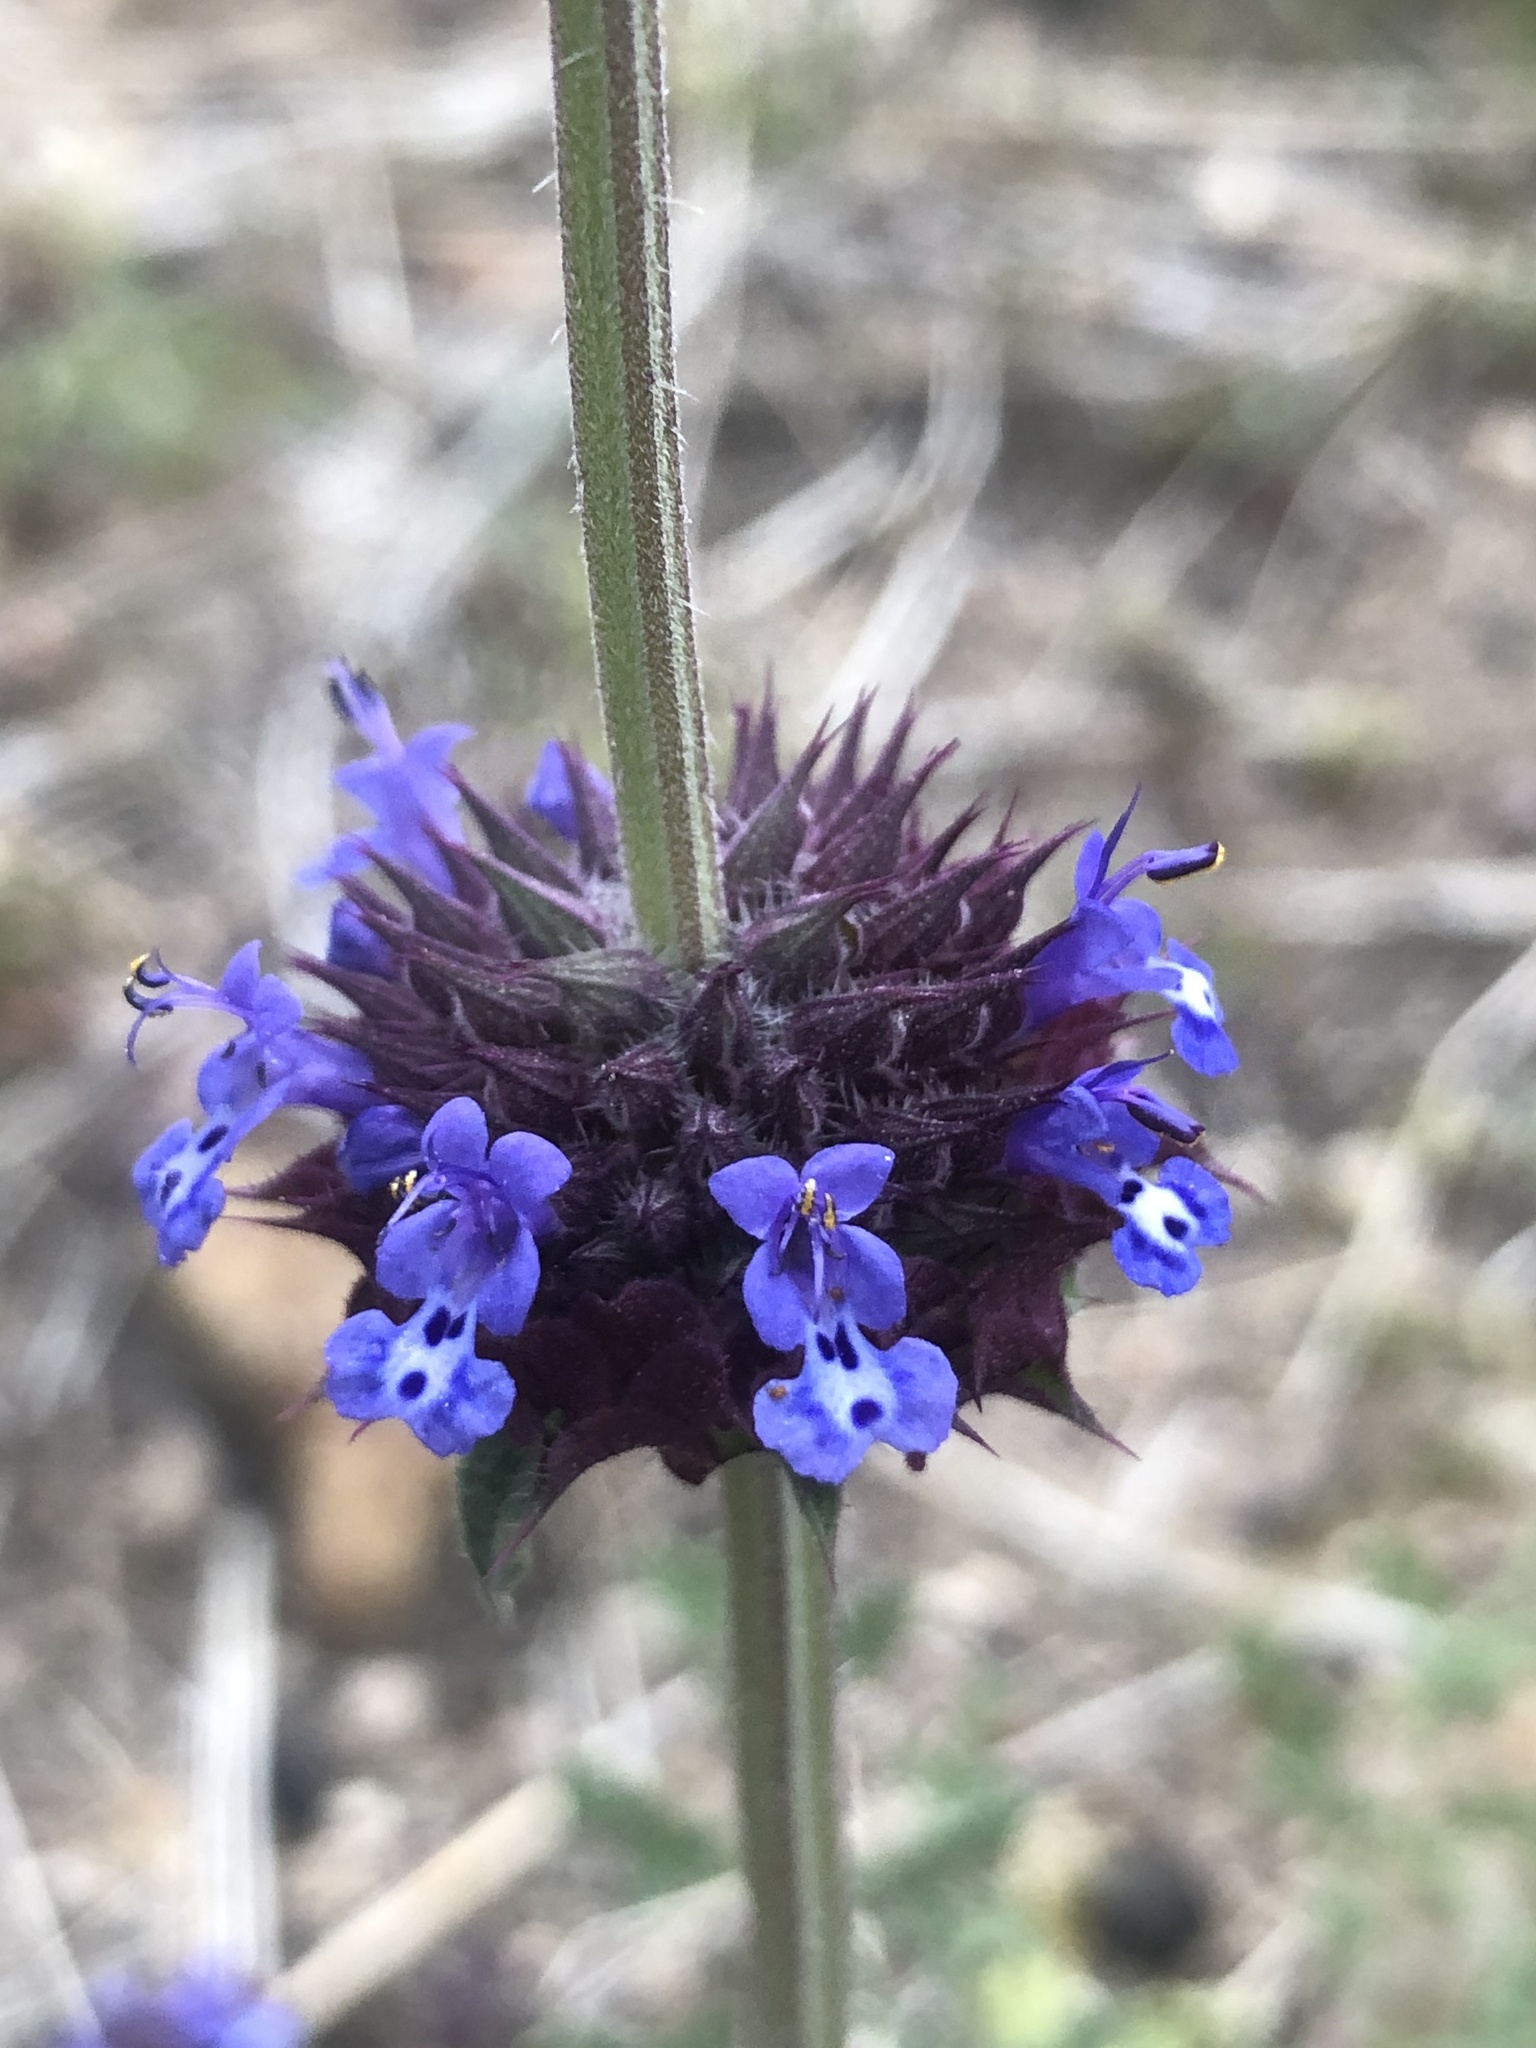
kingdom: Plantae
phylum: Tracheophyta
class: Magnoliopsida
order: Lamiales
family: Lamiaceae
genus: Salvia
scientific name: Salvia columbariae
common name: Chia
